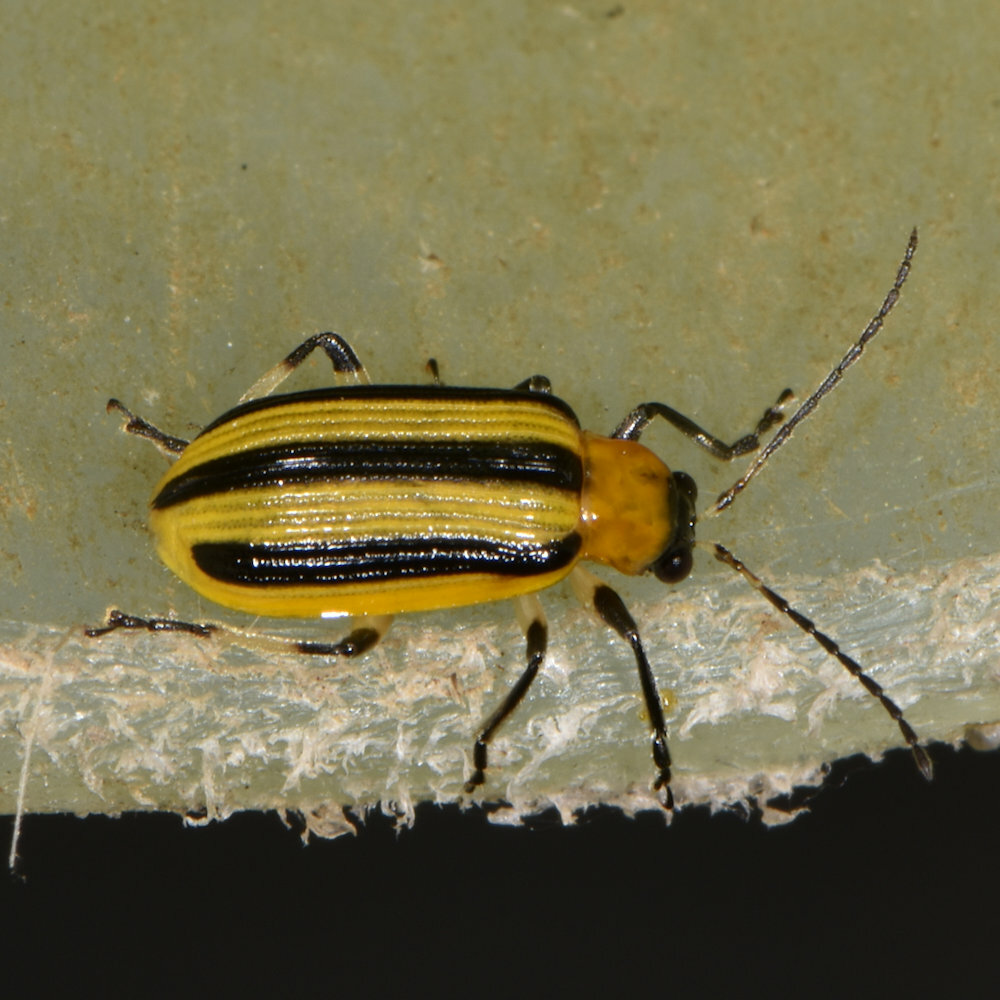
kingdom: Animalia
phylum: Arthropoda
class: Insecta
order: Coleoptera
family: Chrysomelidae
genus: Acalymma
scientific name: Acalymma vittatum
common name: Striped cucumber beetle
